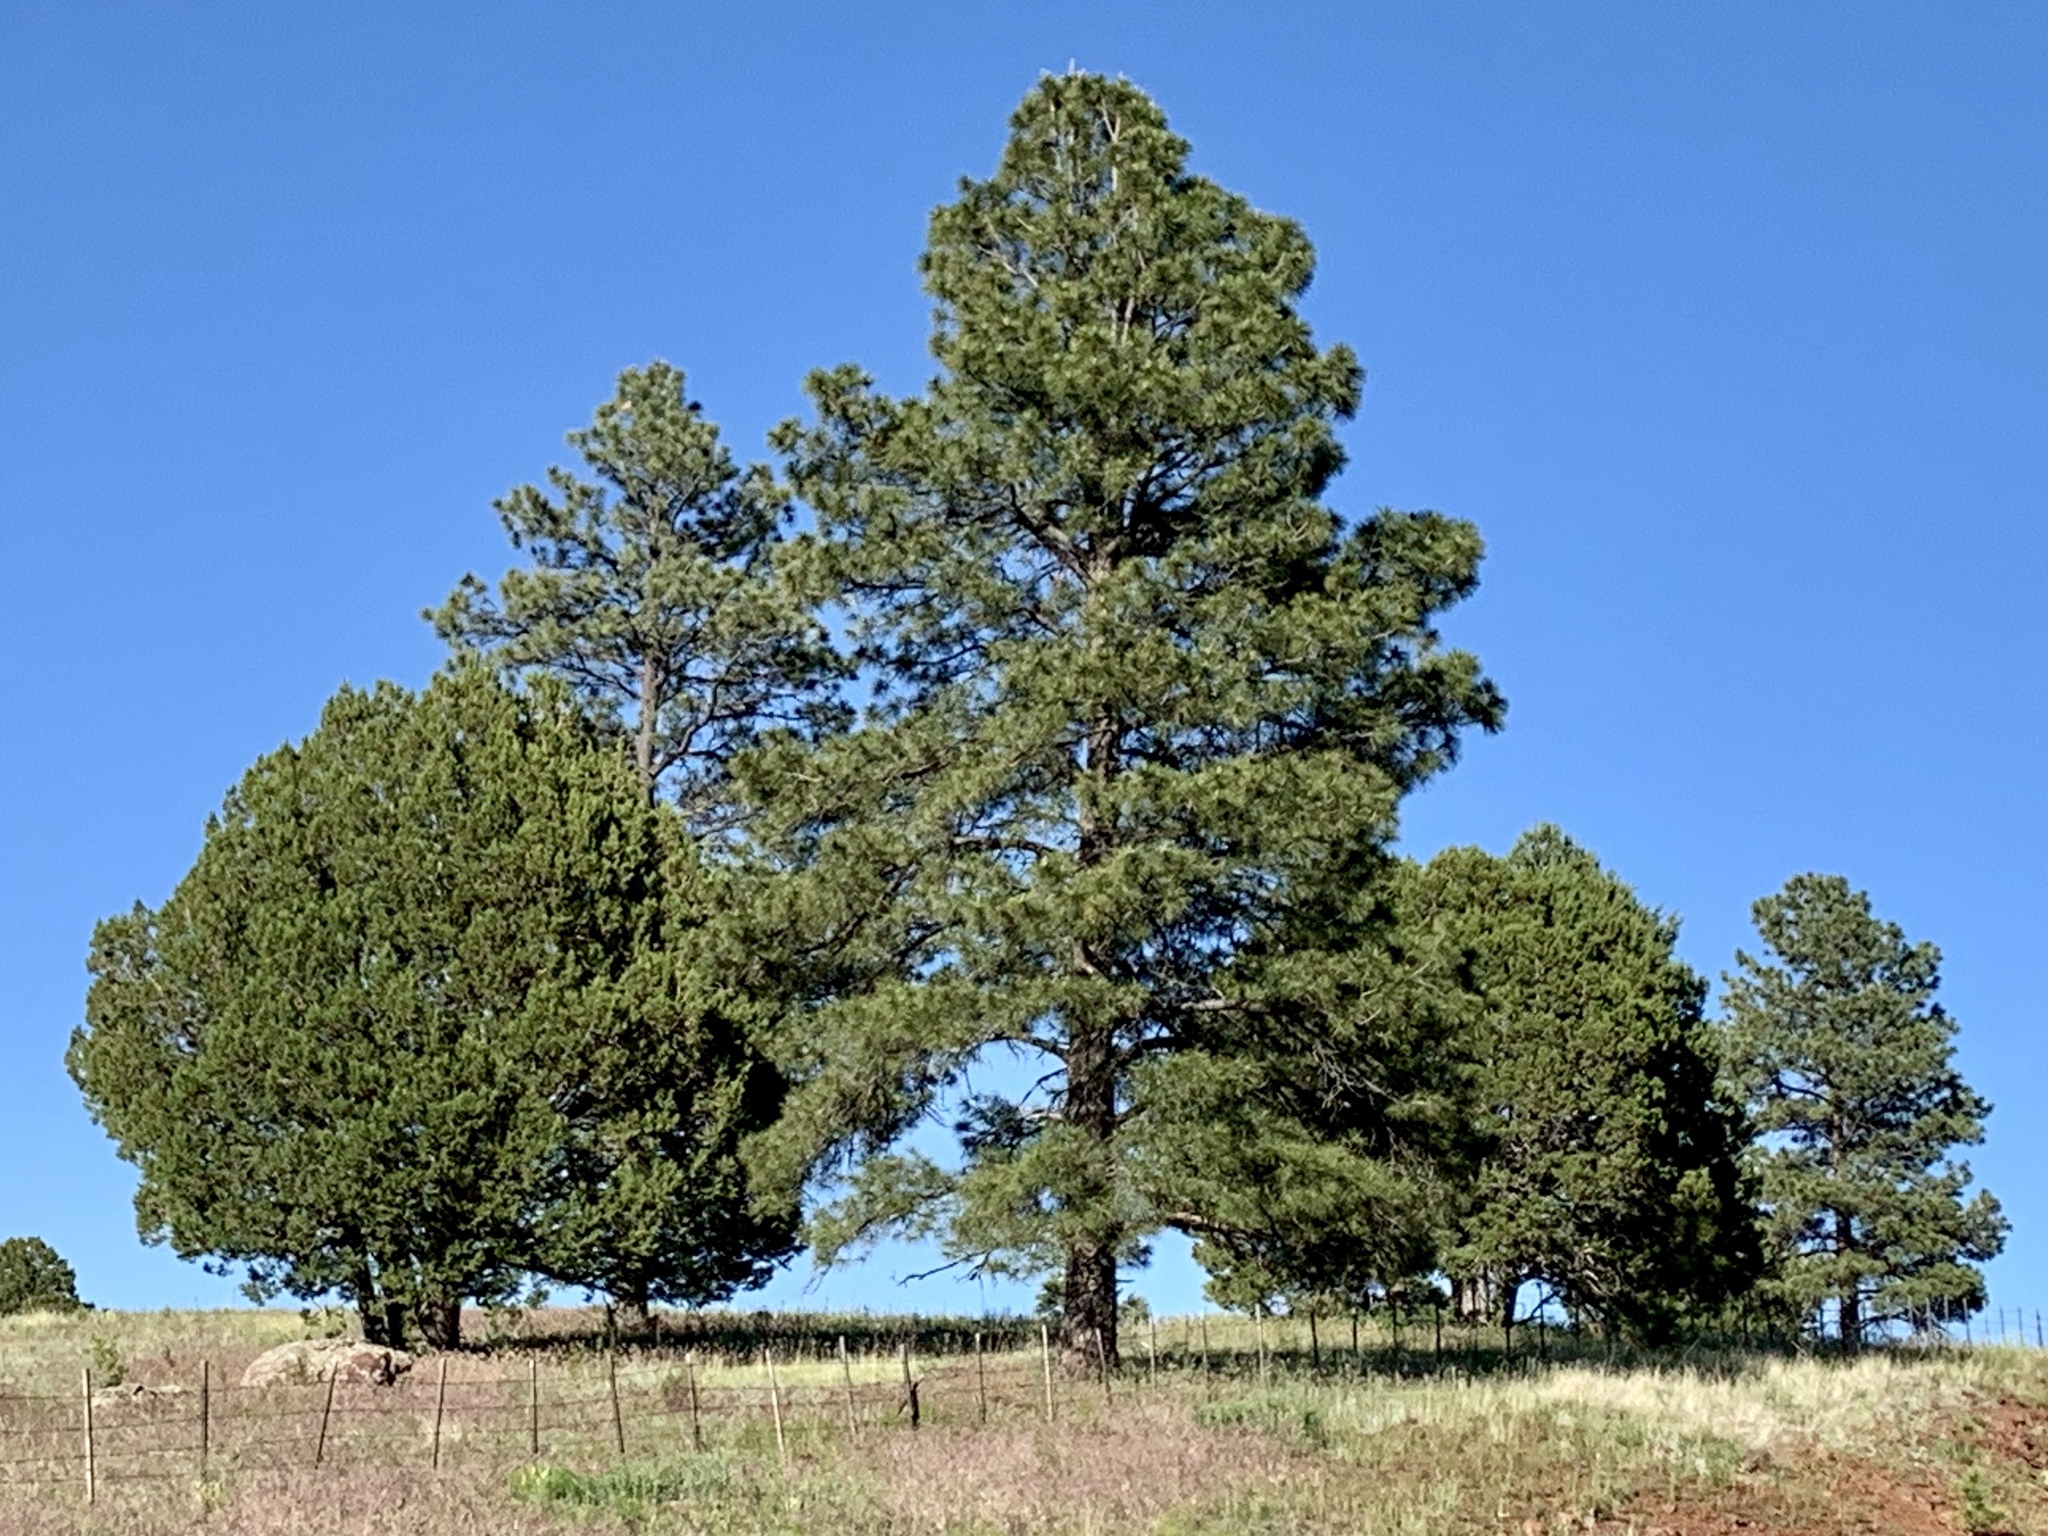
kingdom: Plantae
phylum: Tracheophyta
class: Pinopsida
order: Pinales
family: Pinaceae
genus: Pinus
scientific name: Pinus ponderosa
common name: Western yellow-pine
